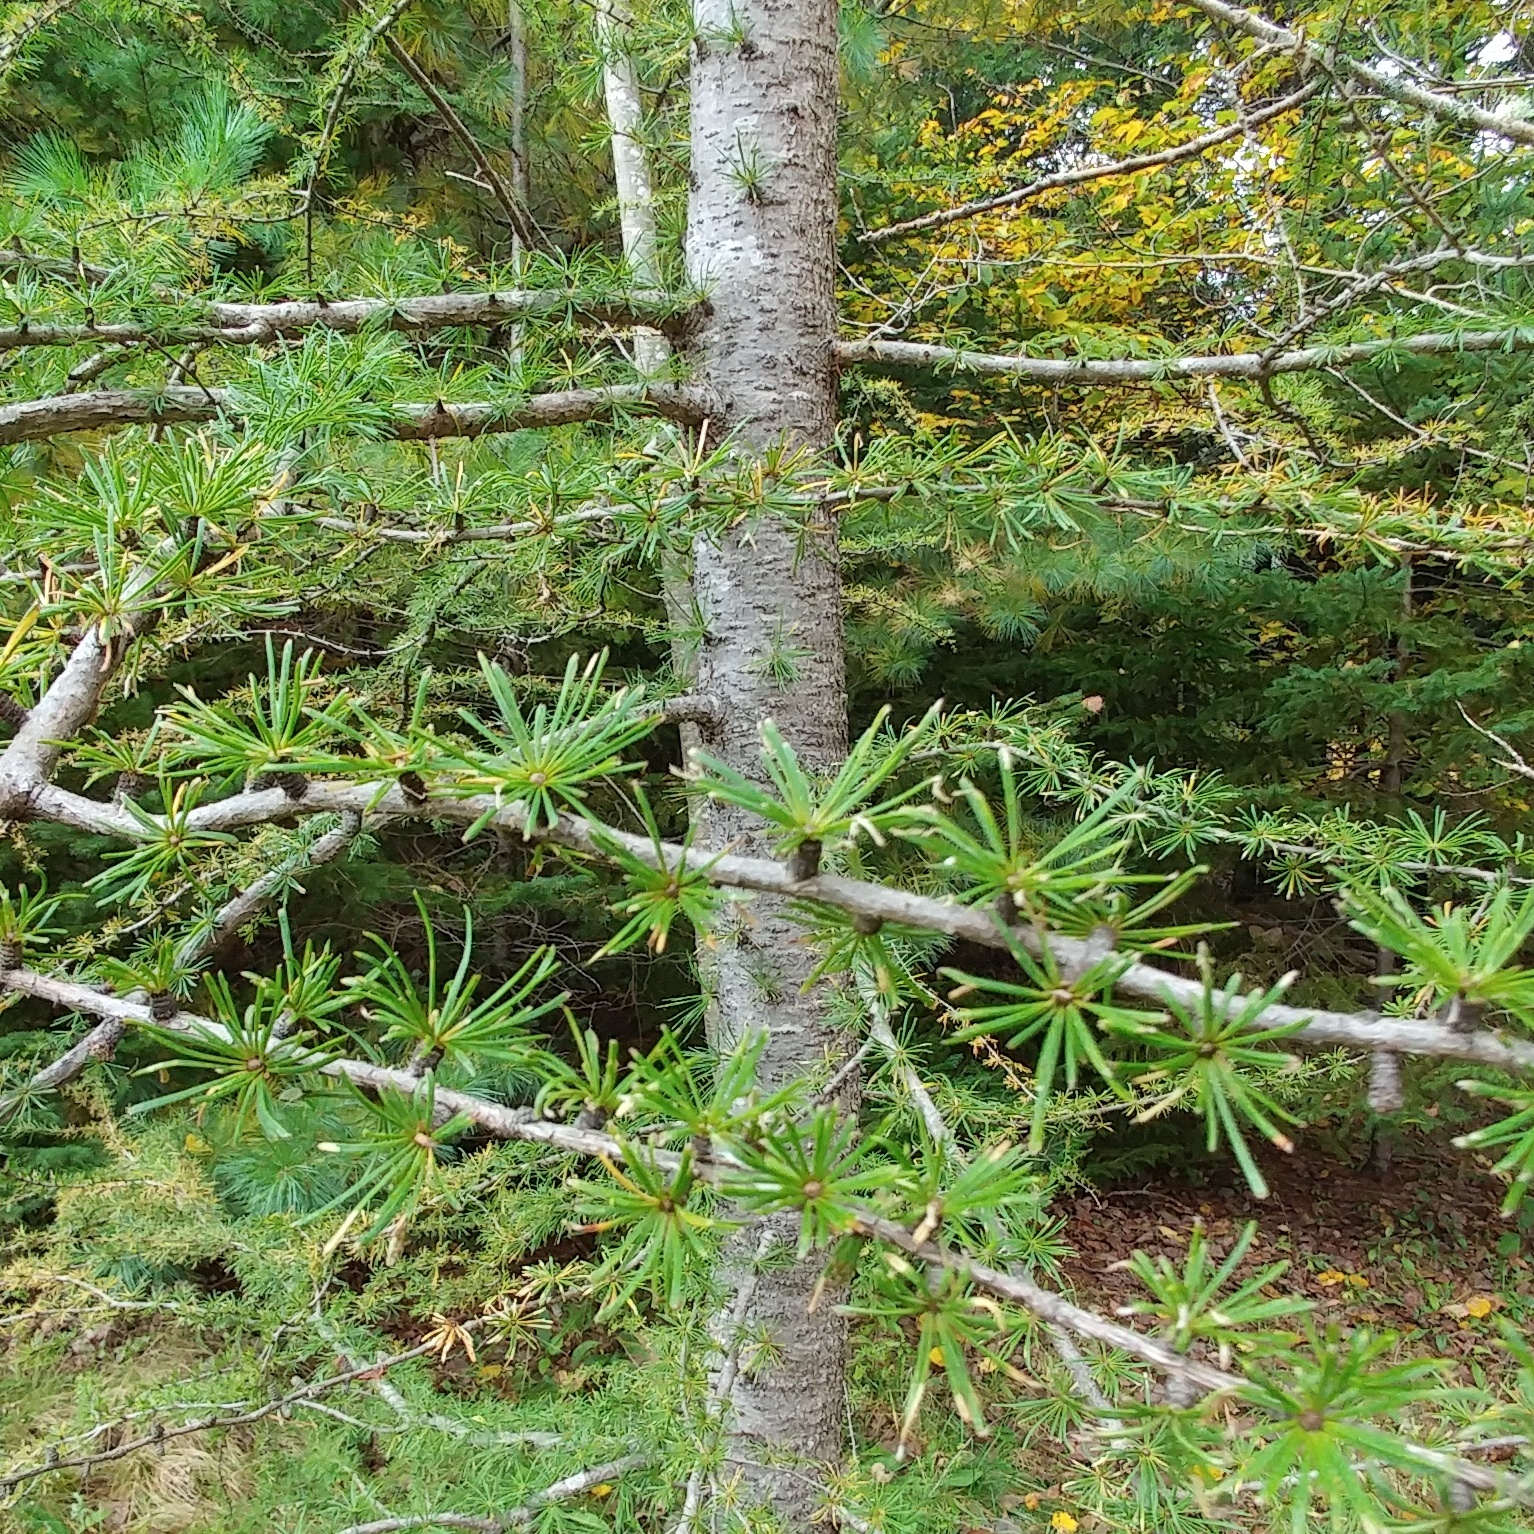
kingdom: Plantae
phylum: Tracheophyta
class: Pinopsida
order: Pinales
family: Pinaceae
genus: Larix
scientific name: Larix laricina
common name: American larch
